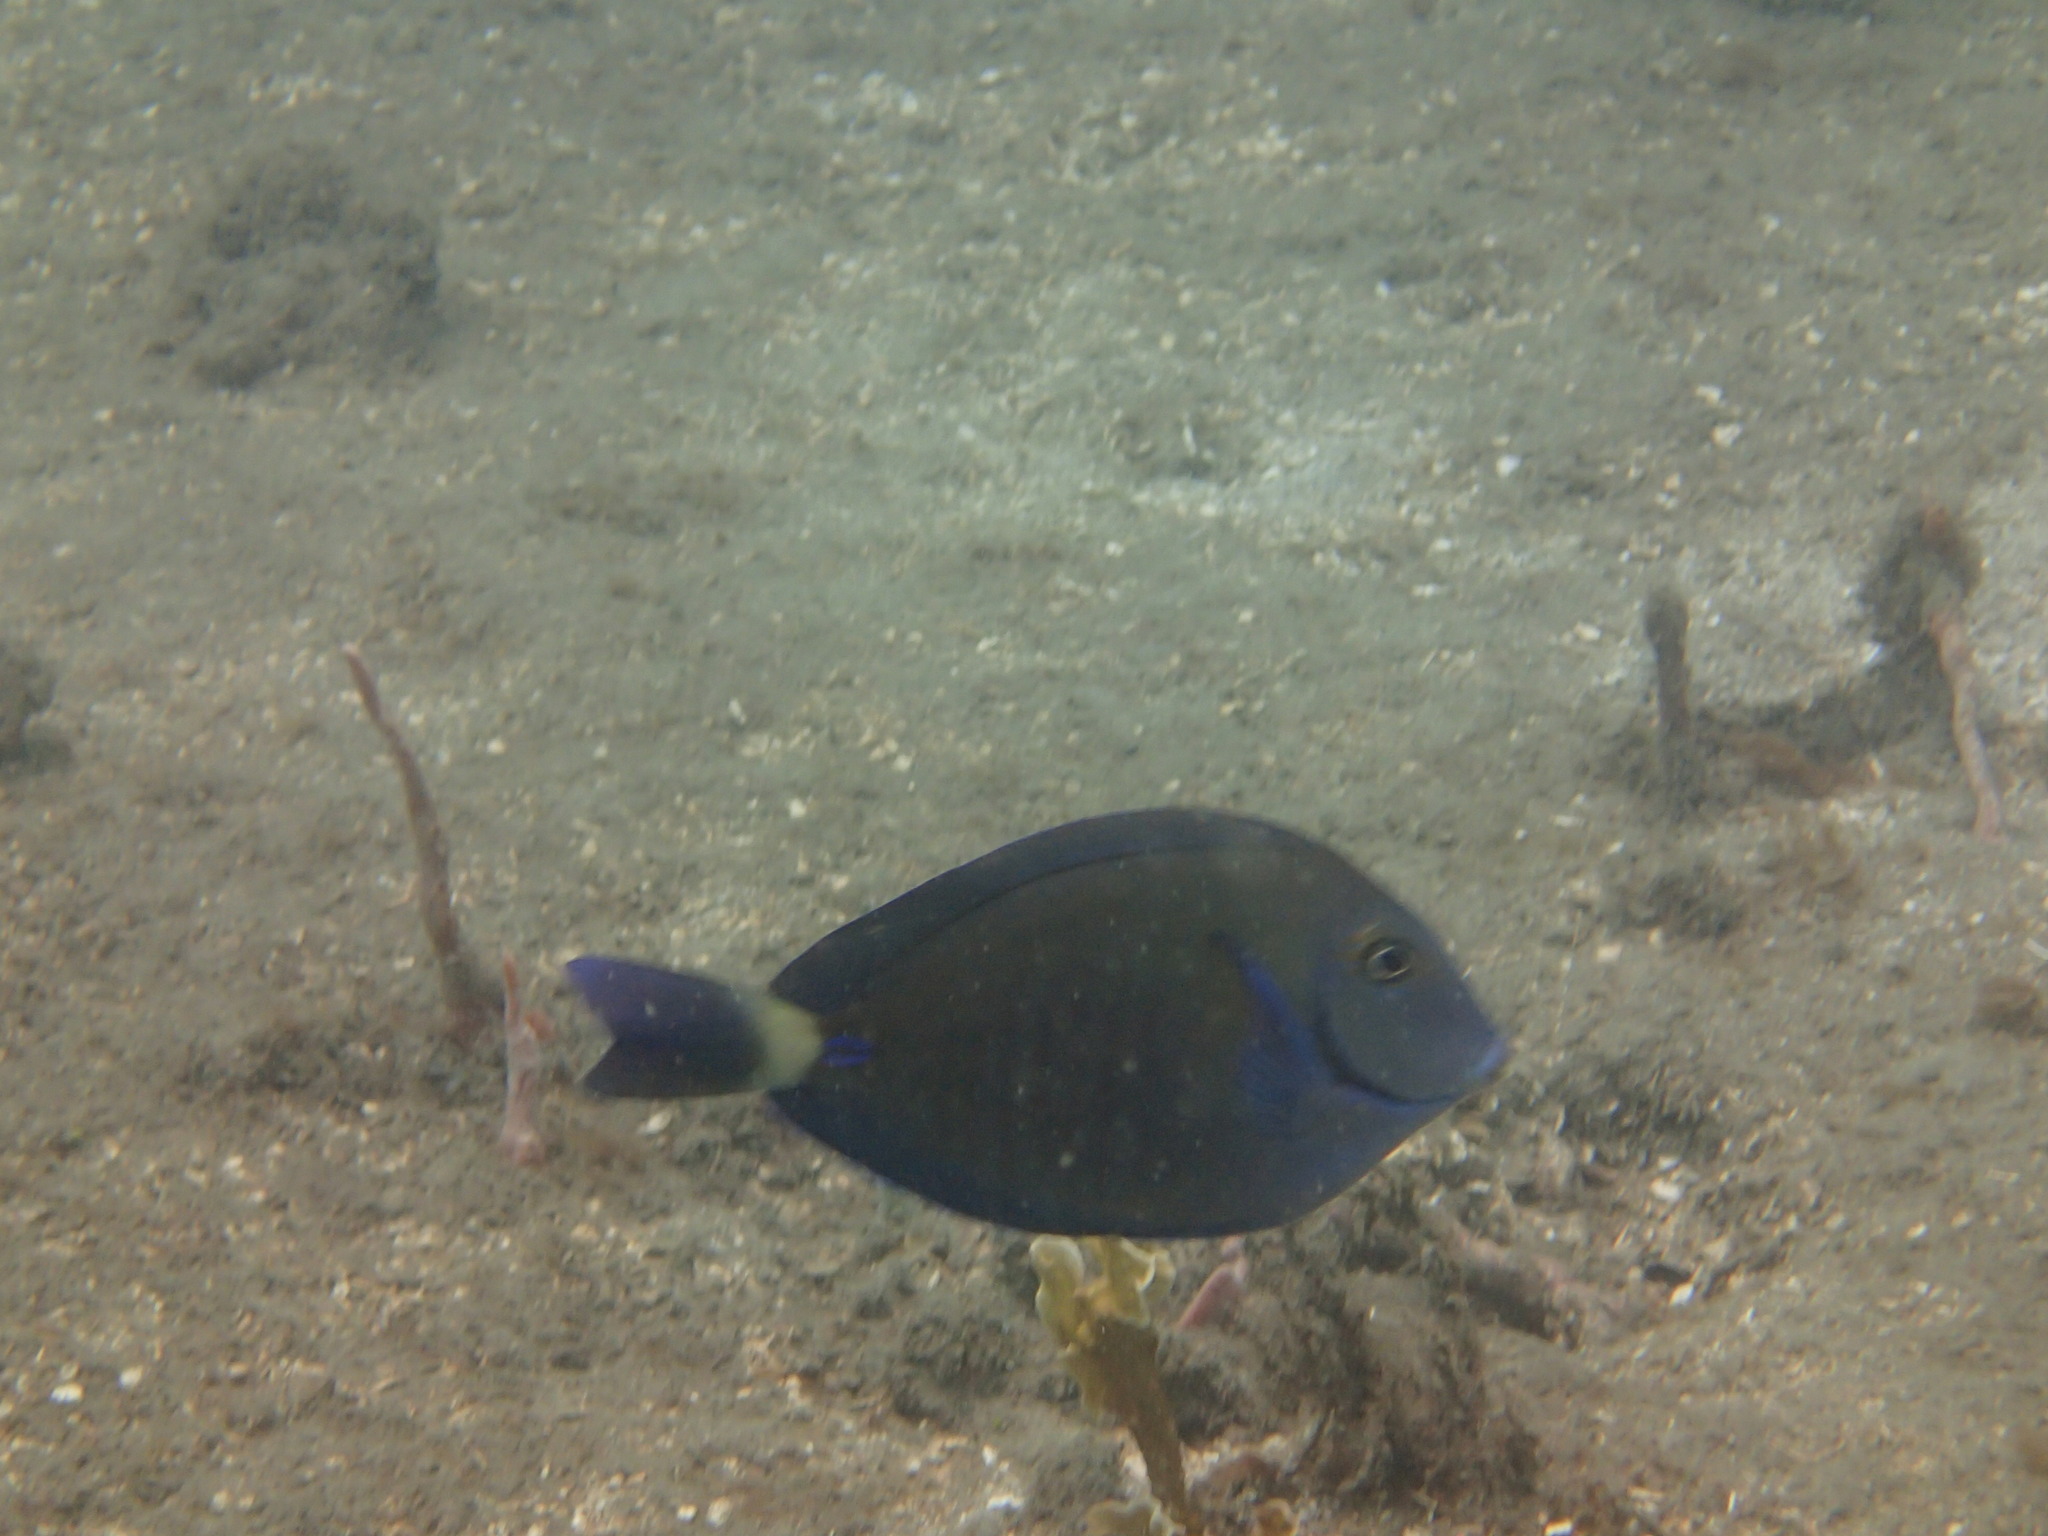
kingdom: Animalia
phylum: Chordata
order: Perciformes
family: Acanthuridae
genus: Acanthurus
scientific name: Acanthurus chirurgus
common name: Doctorfish
